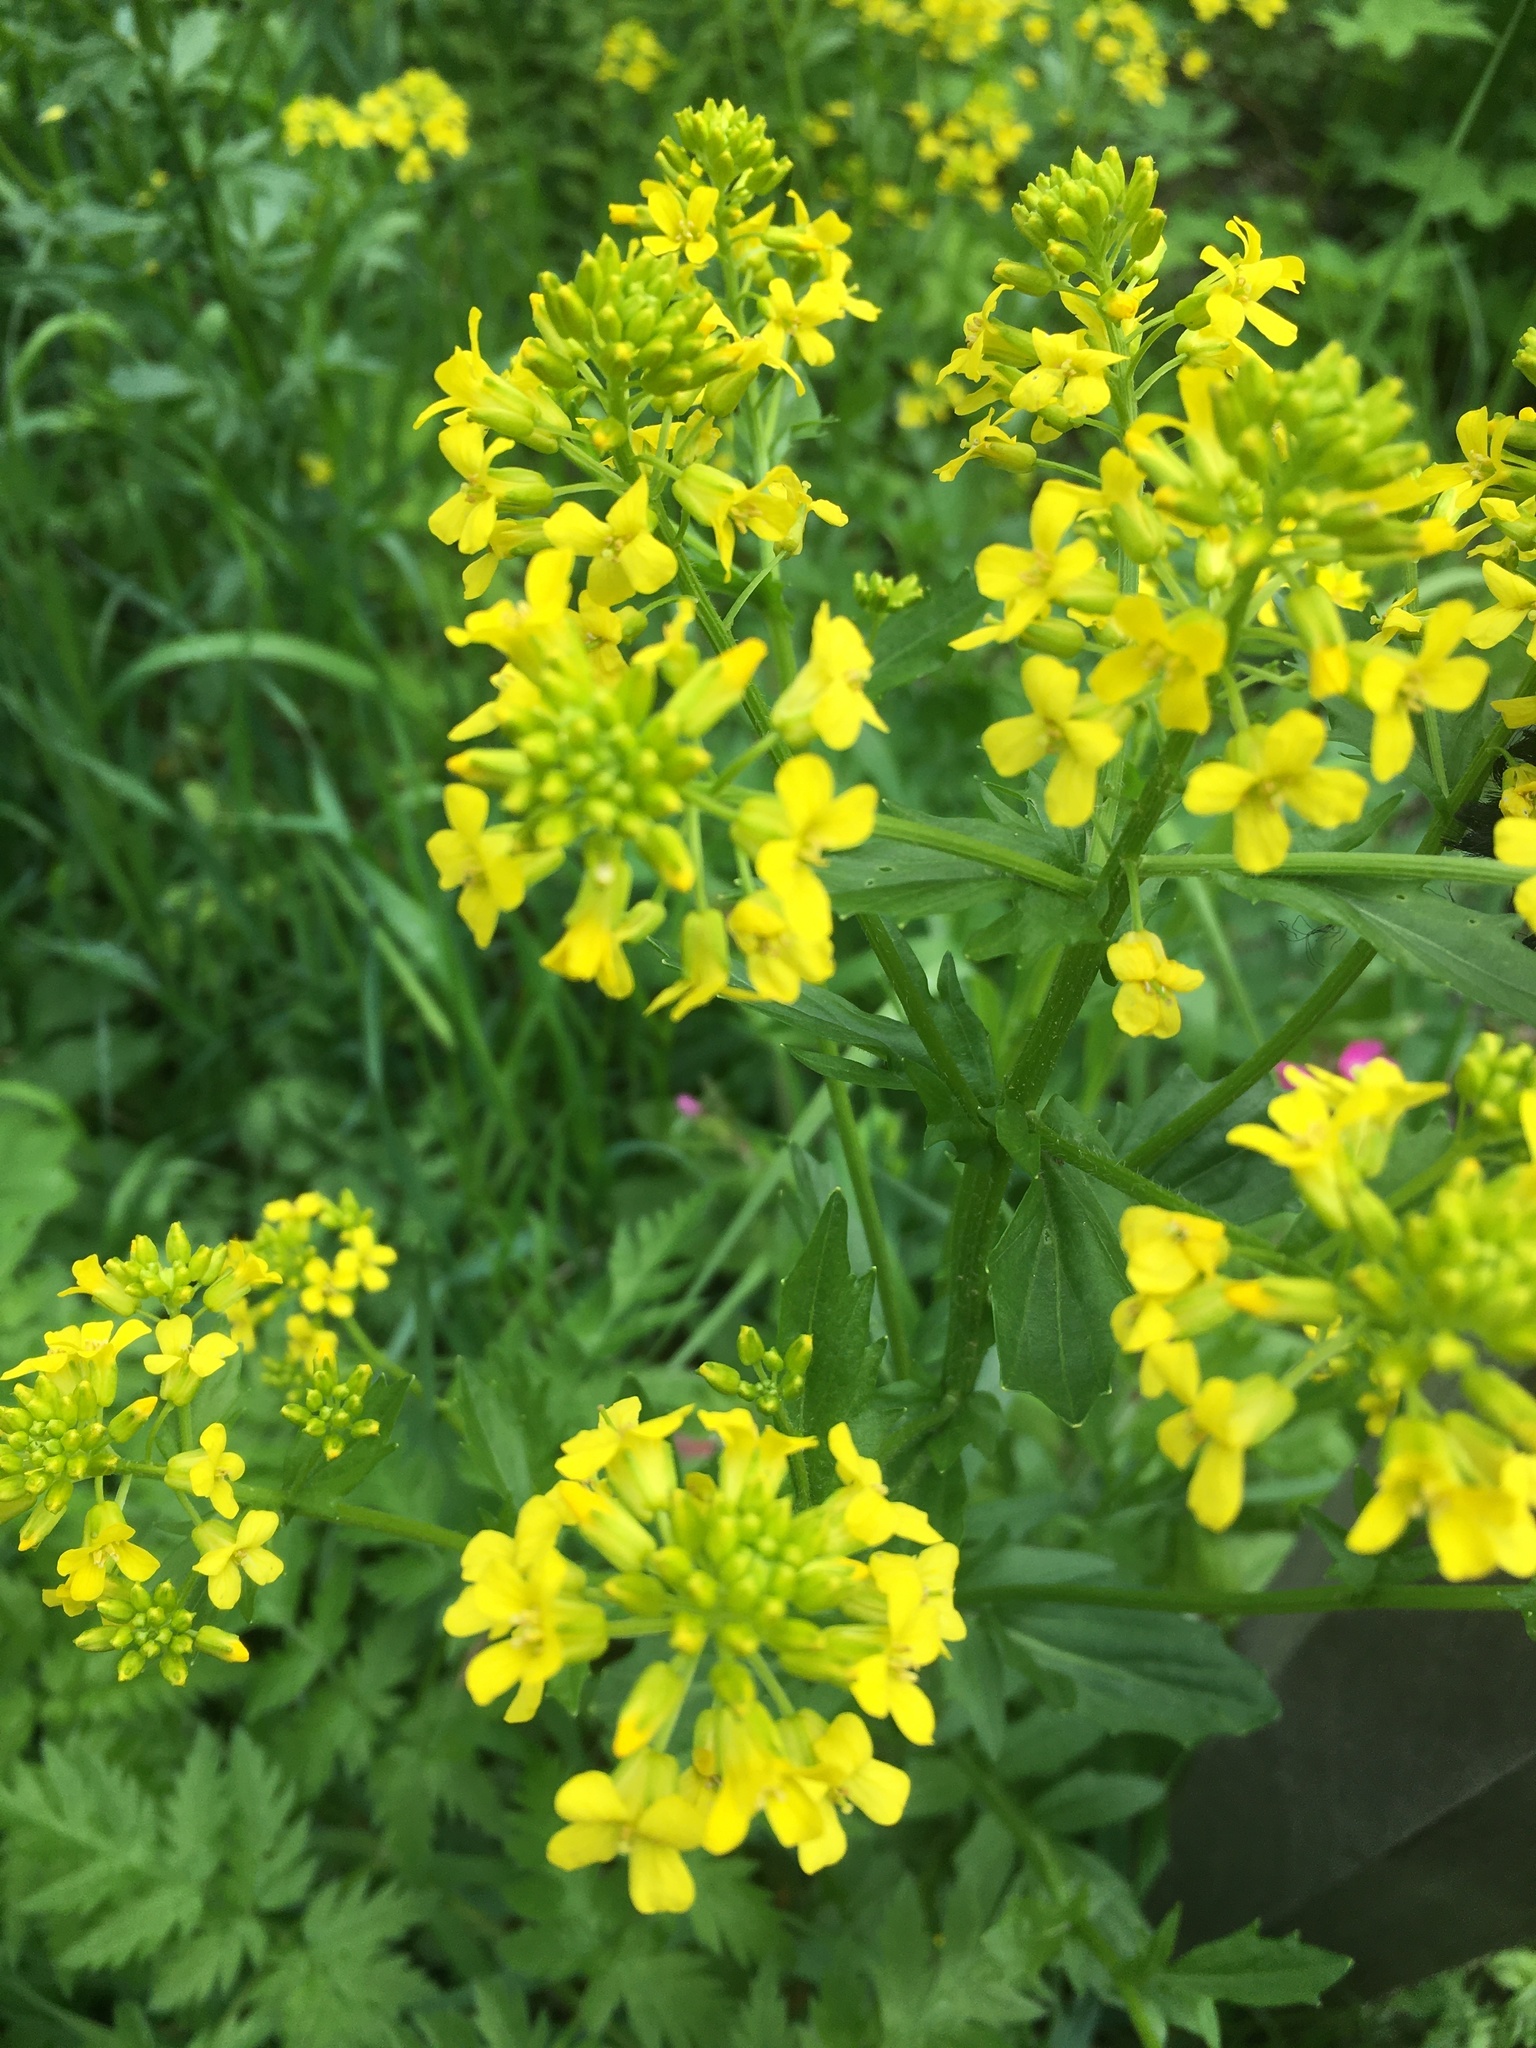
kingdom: Plantae
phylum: Tracheophyta
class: Magnoliopsida
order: Brassicales
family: Brassicaceae
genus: Barbarea
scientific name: Barbarea vulgaris
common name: Cressy-greens
